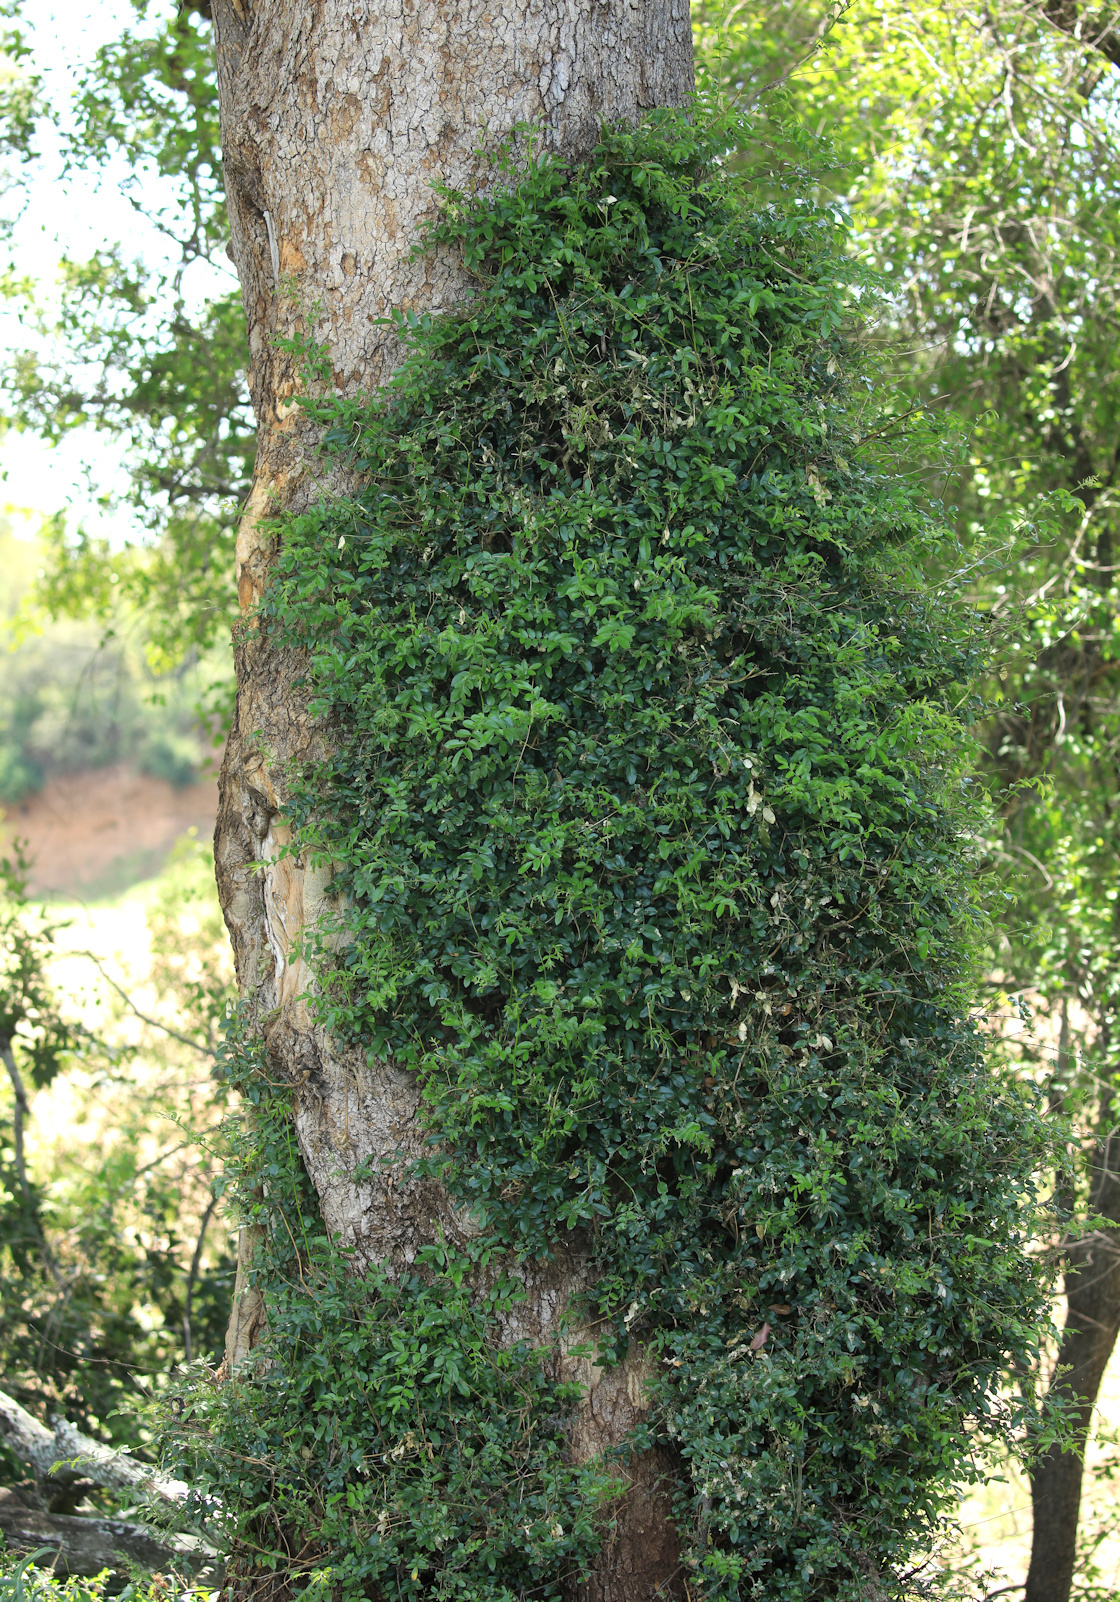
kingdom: Plantae
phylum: Tracheophyta
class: Magnoliopsida
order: Fabales
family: Fabaceae
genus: Xanthocercis
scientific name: Xanthocercis zambesiaca
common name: Nyala-tree
